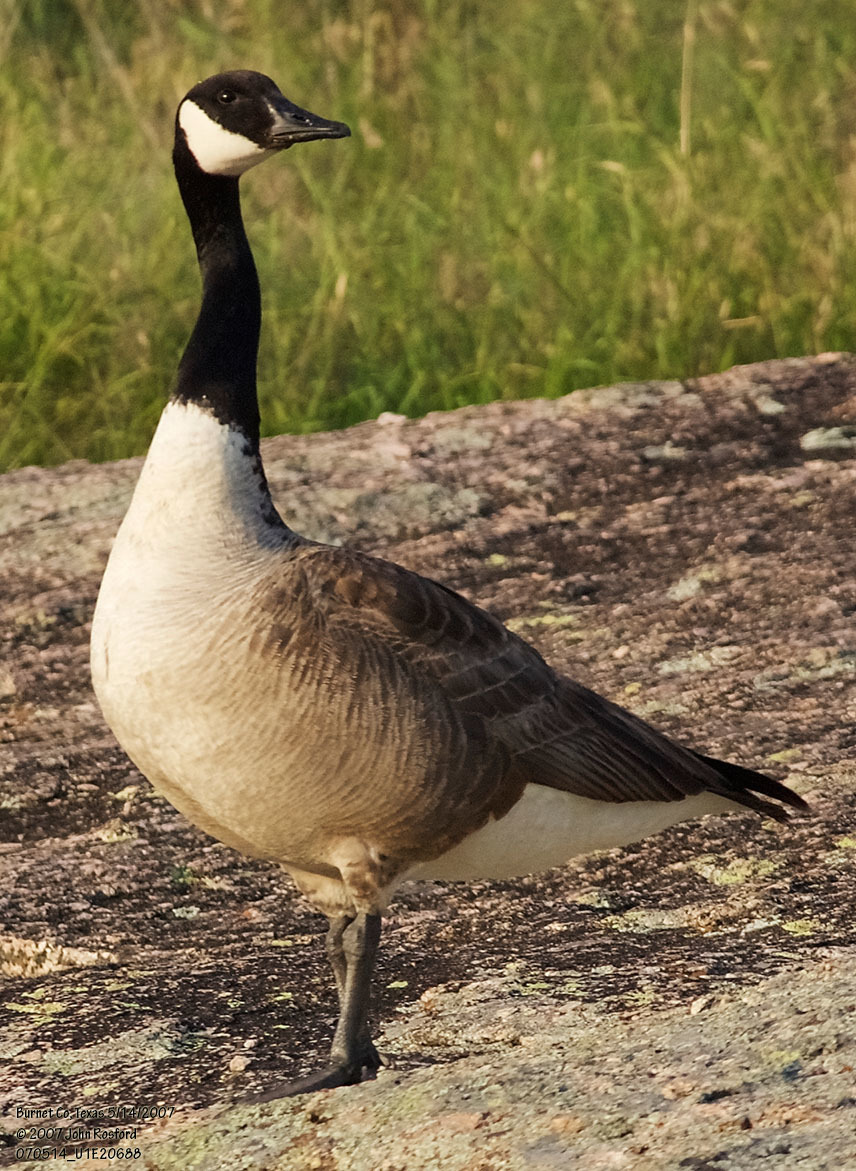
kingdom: Animalia
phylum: Chordata
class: Aves
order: Anseriformes
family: Anatidae
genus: Branta
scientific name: Branta canadensis
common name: Canada goose
